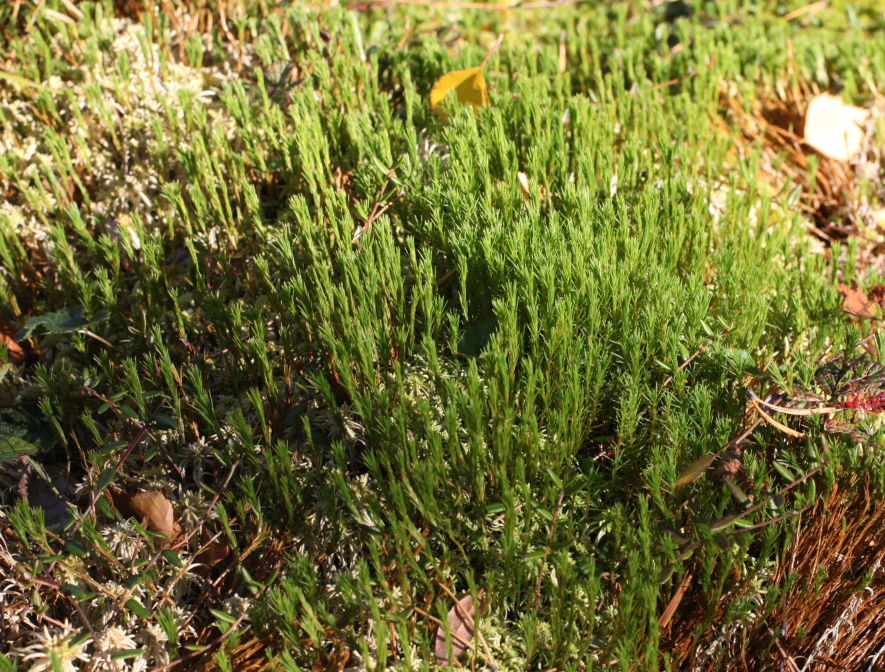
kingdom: Plantae
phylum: Bryophyta
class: Polytrichopsida
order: Polytrichales
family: Polytrichaceae
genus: Polytrichum
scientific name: Polytrichum strictum
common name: Bog haircap moss
